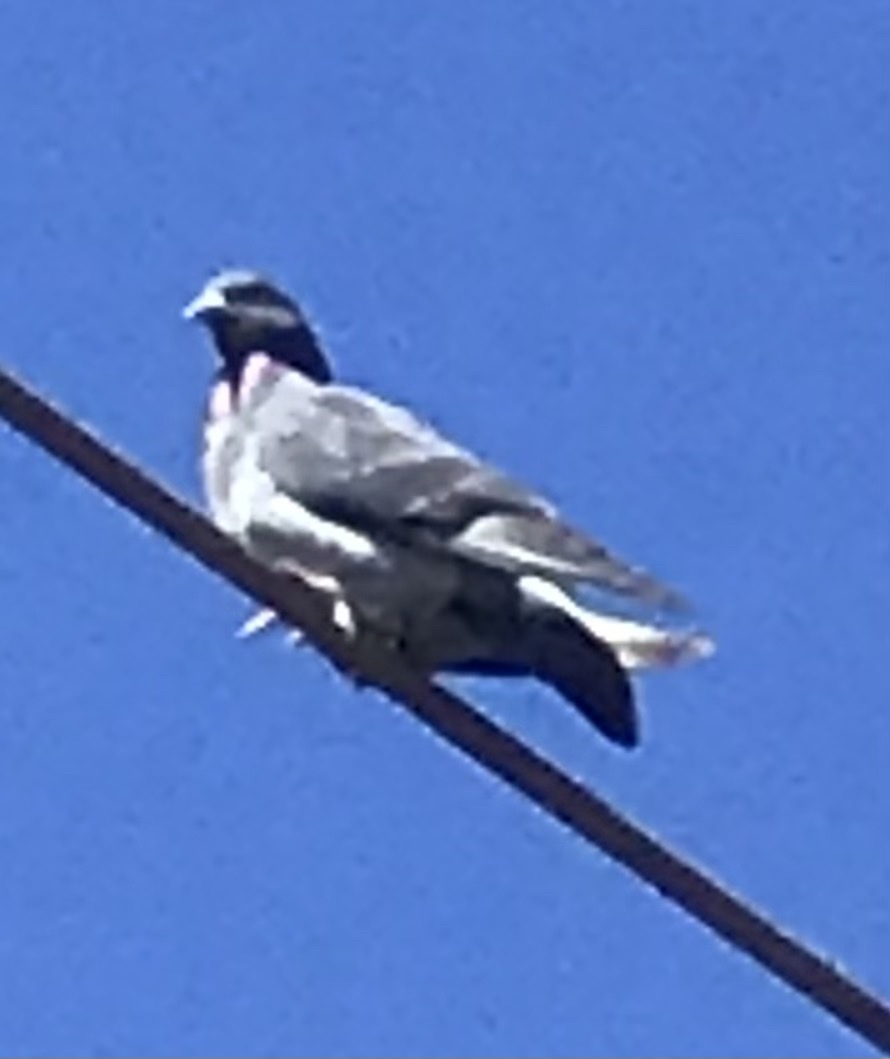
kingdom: Animalia
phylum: Chordata
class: Aves
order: Columbiformes
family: Columbidae
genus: Columba
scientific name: Columba livia
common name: Rock pigeon
